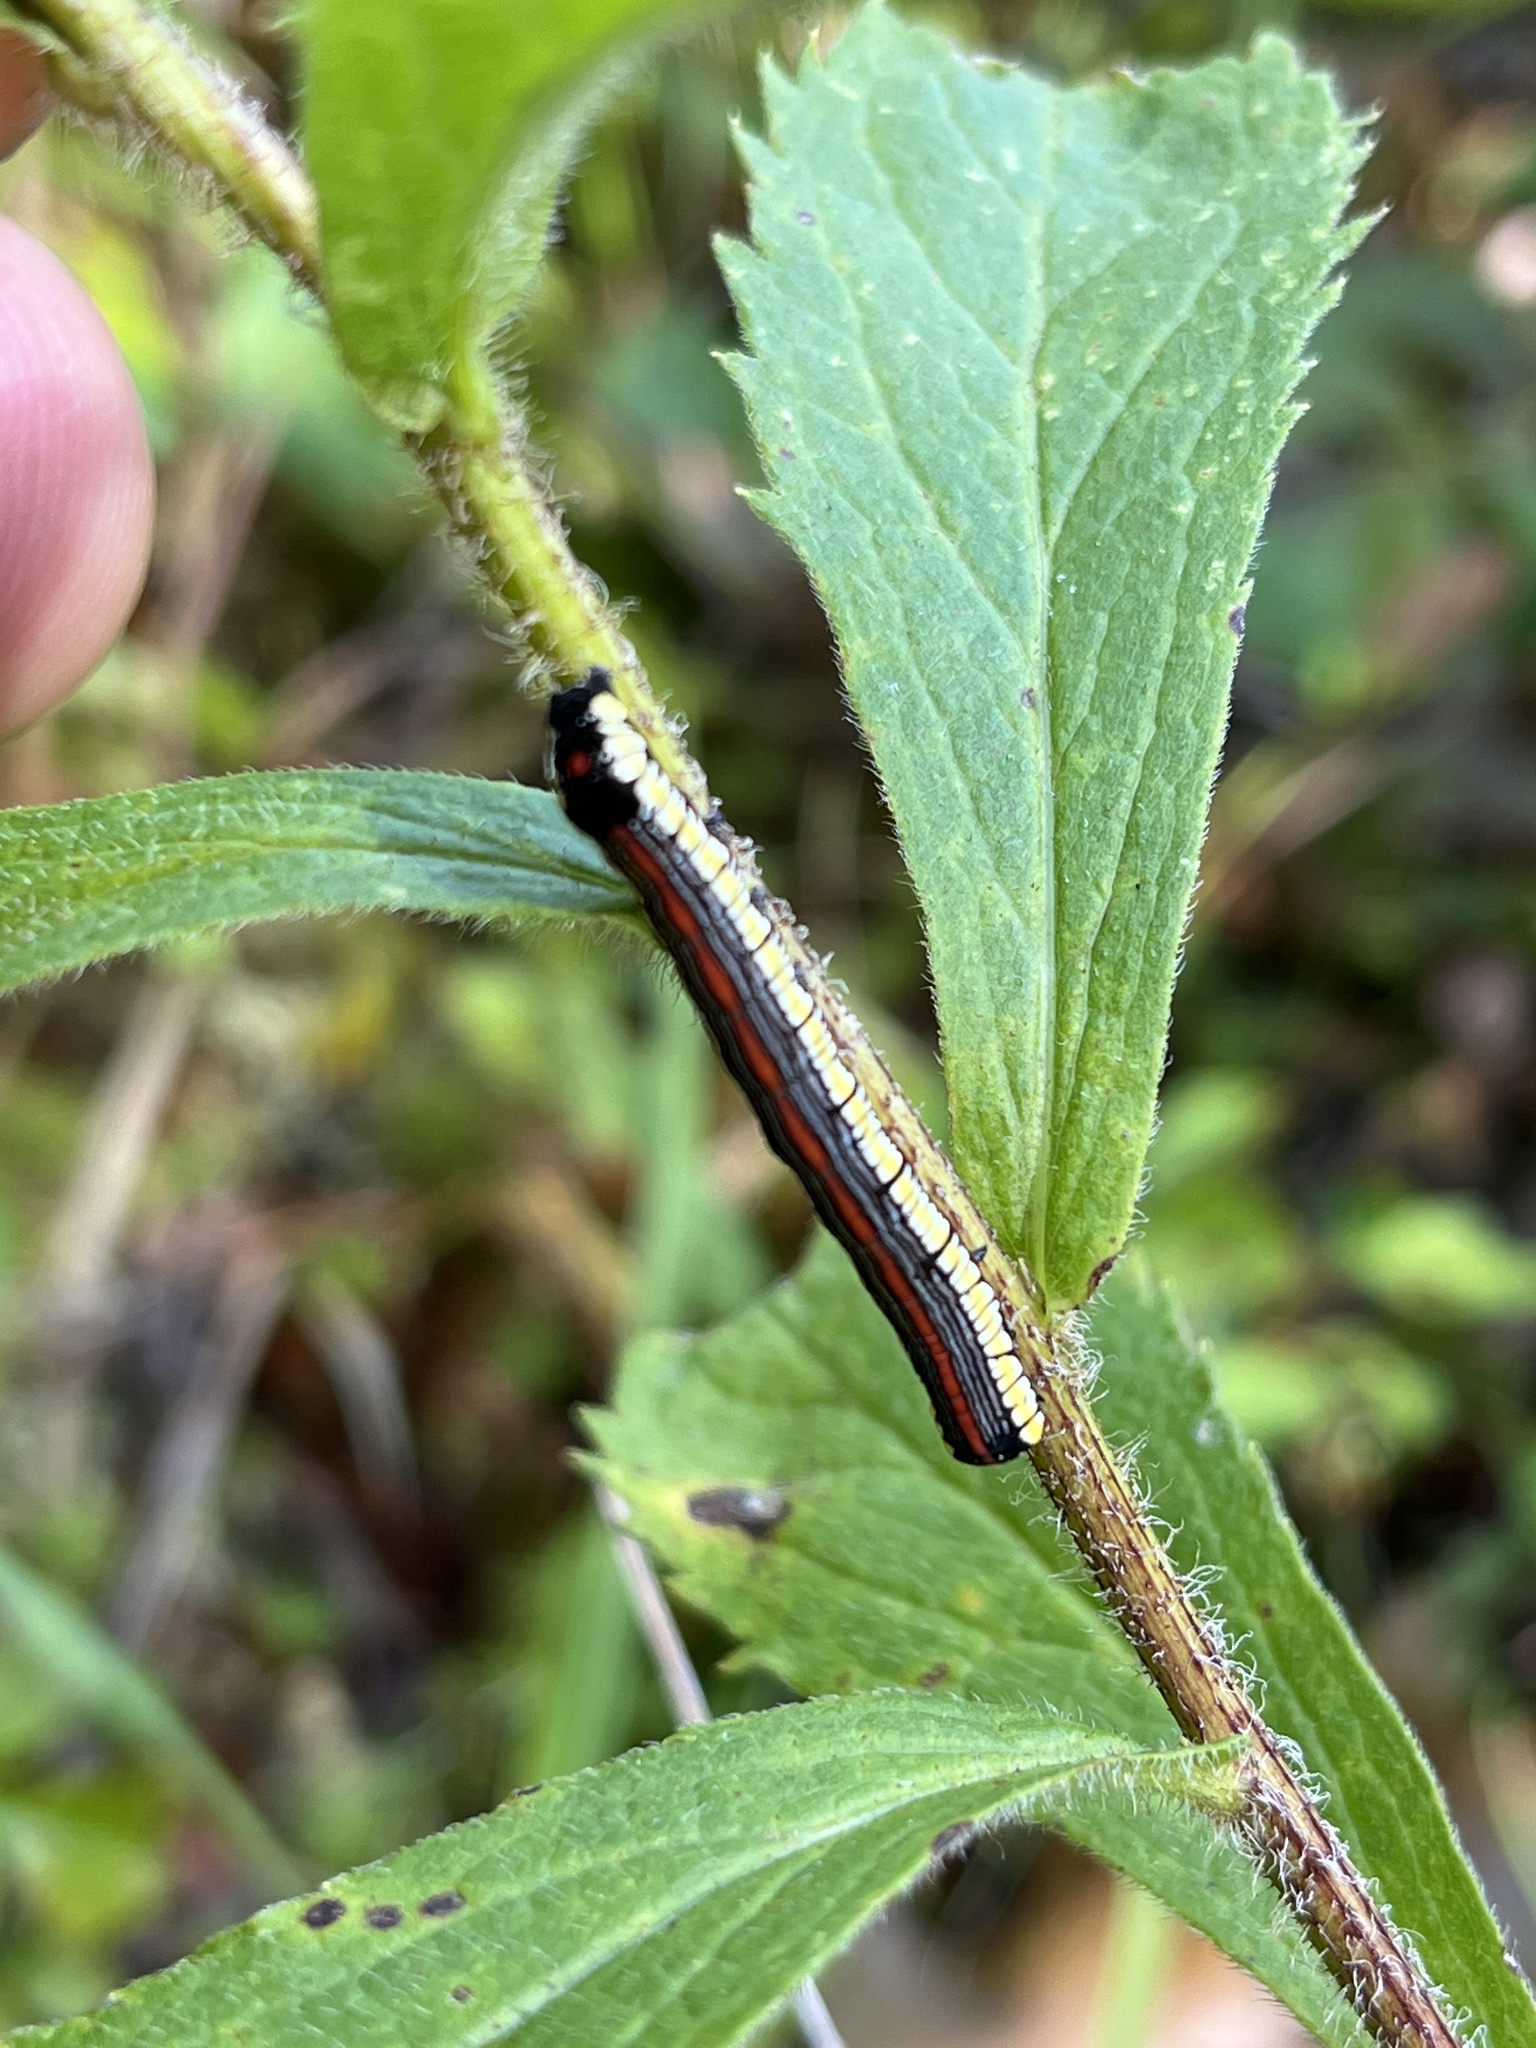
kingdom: Animalia
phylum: Arthropoda
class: Insecta
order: Lepidoptera
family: Noctuidae
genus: Cucullia
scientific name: Cucullia convexipennis
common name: Brown-hooded owlet
